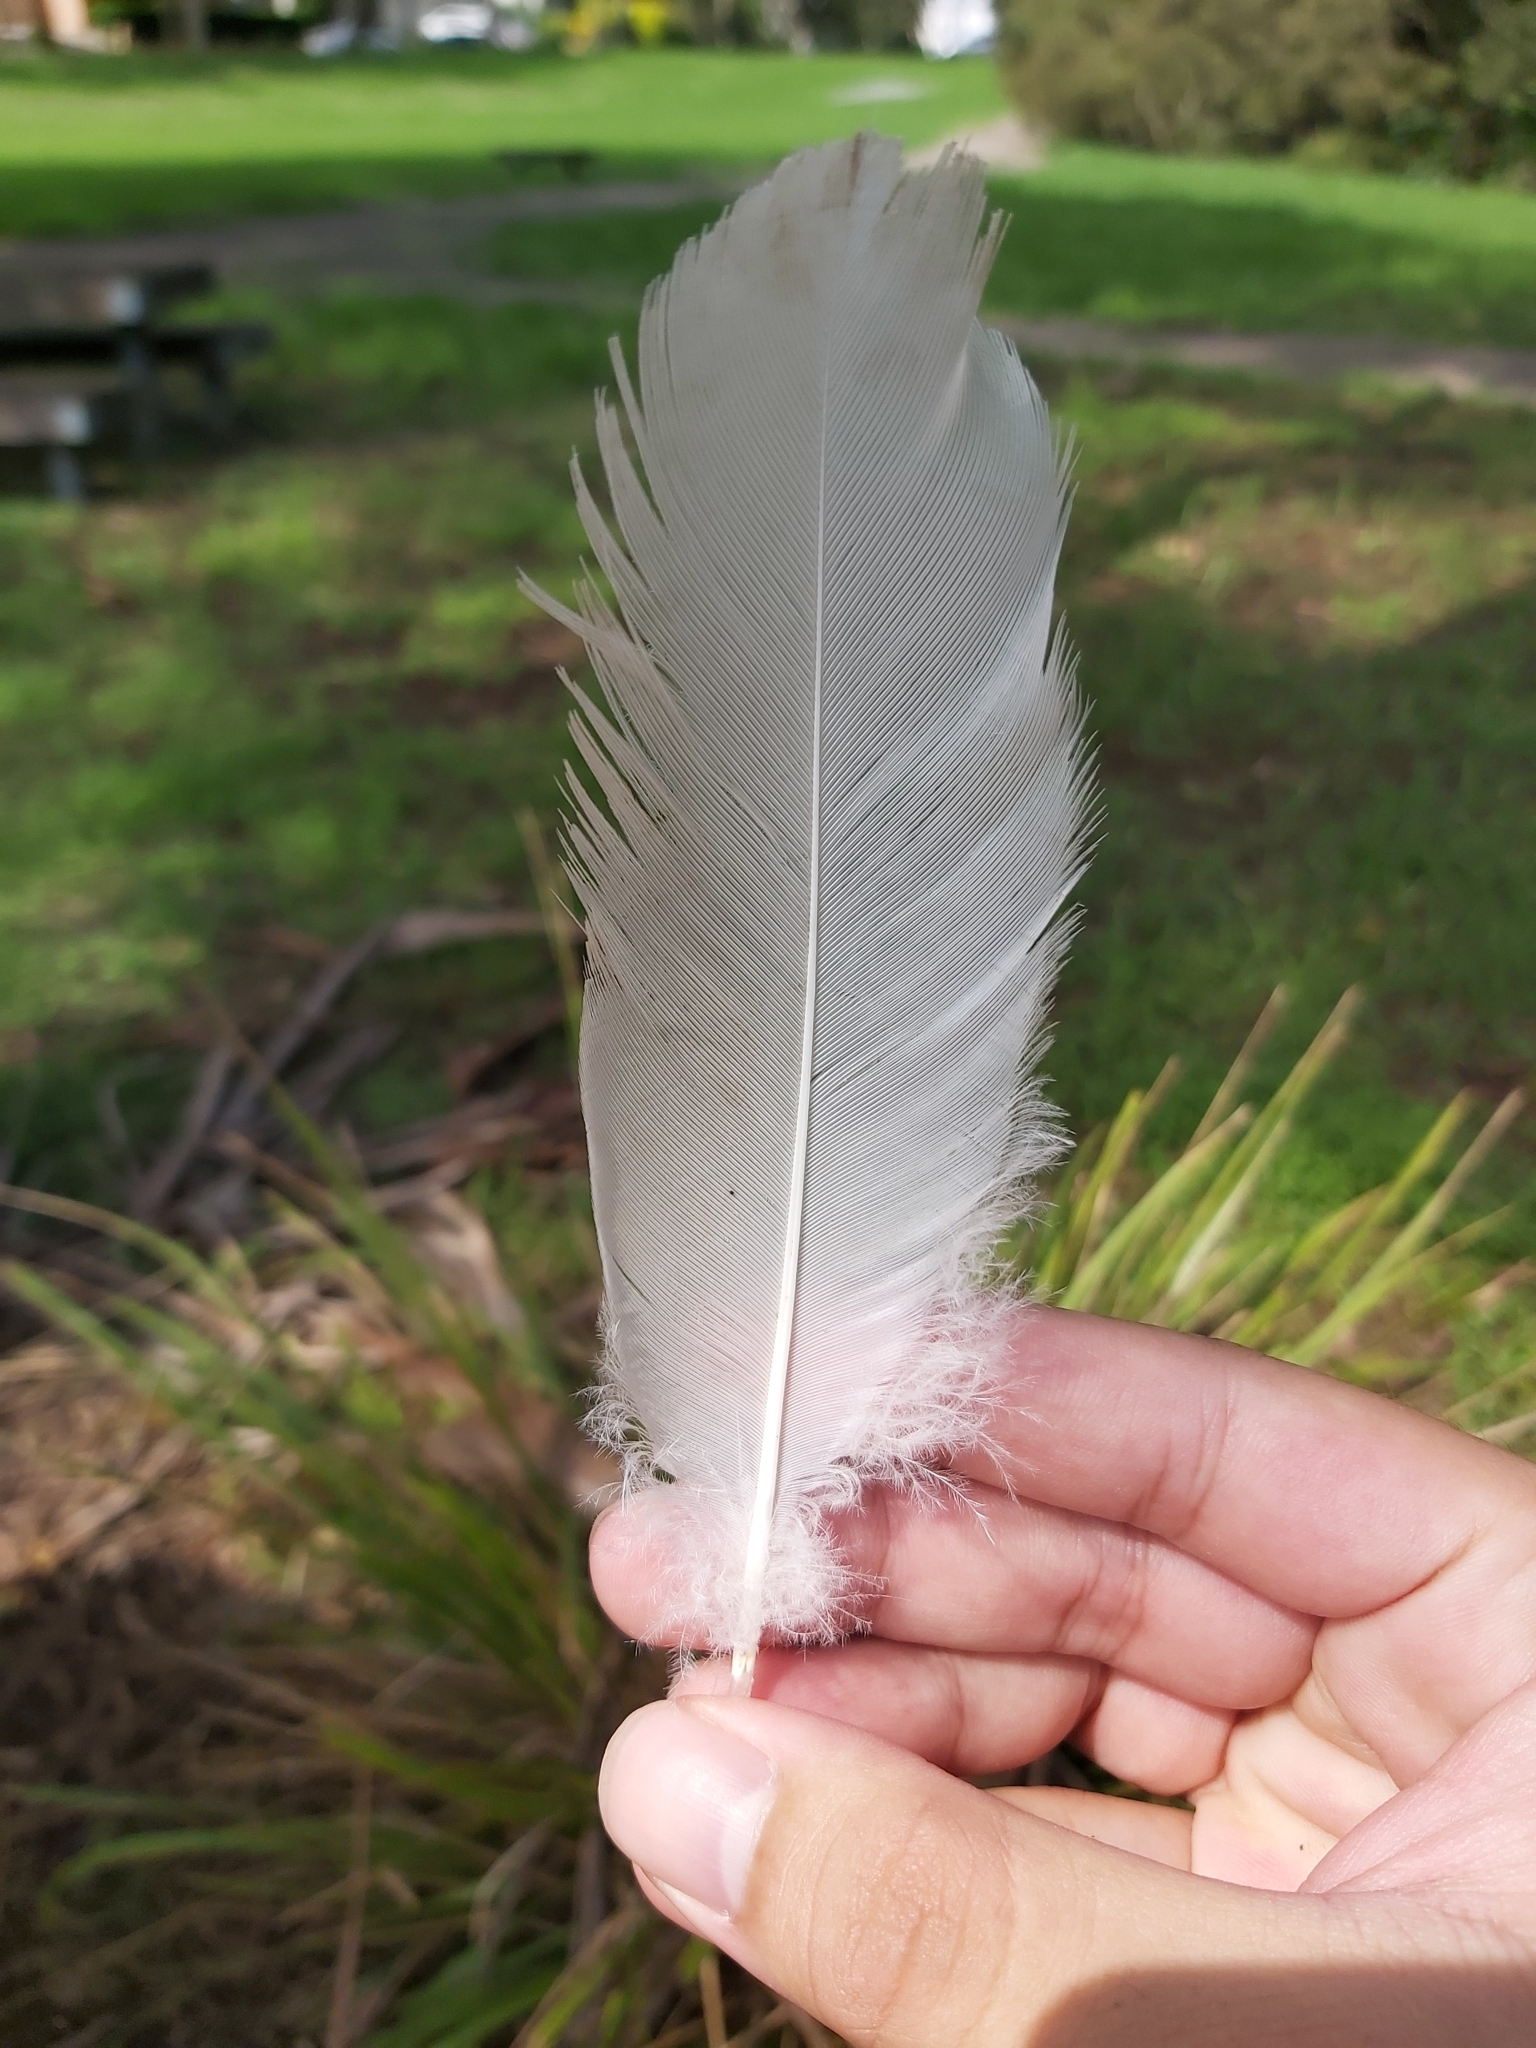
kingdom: Animalia
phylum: Chordata
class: Aves
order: Pelecaniformes
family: Threskiornithidae
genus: Threskiornis
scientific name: Threskiornis molucca
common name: Australian white ibis
